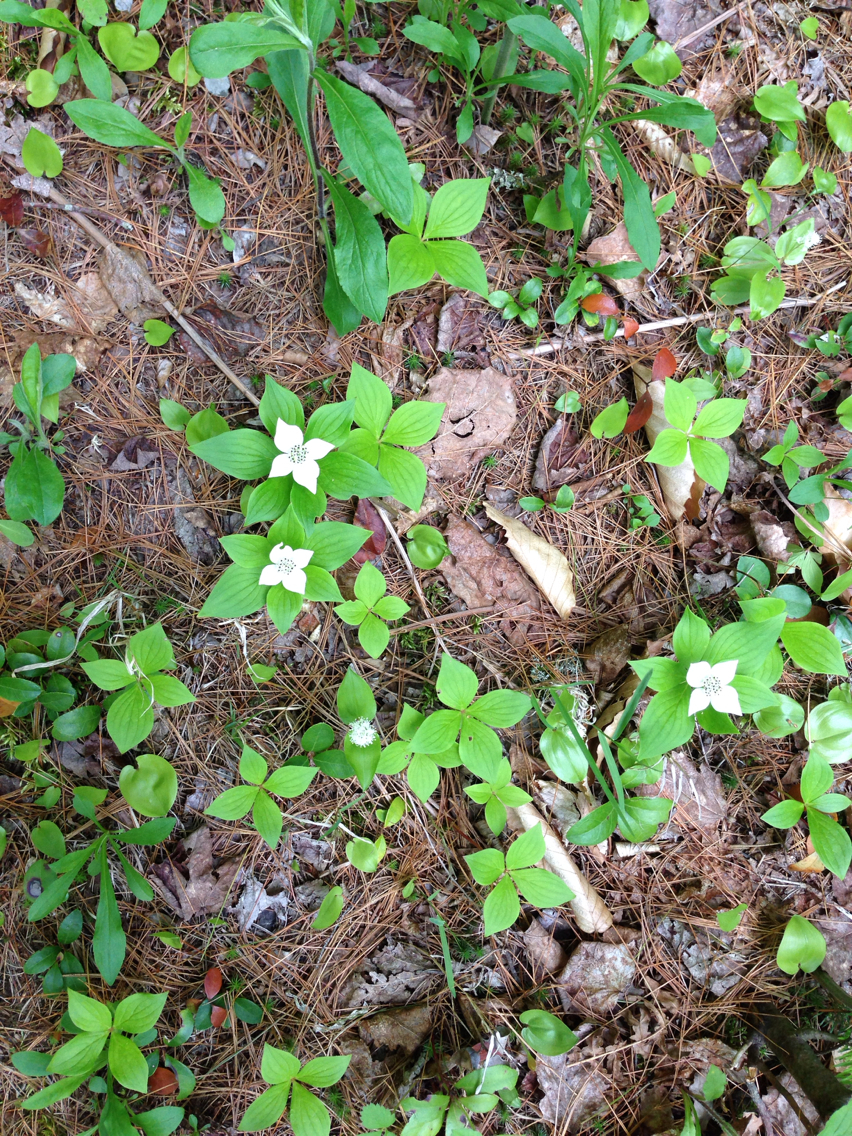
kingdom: Plantae
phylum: Tracheophyta
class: Magnoliopsida
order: Cornales
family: Cornaceae
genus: Cornus
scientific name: Cornus canadensis
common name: Creeping dogwood
